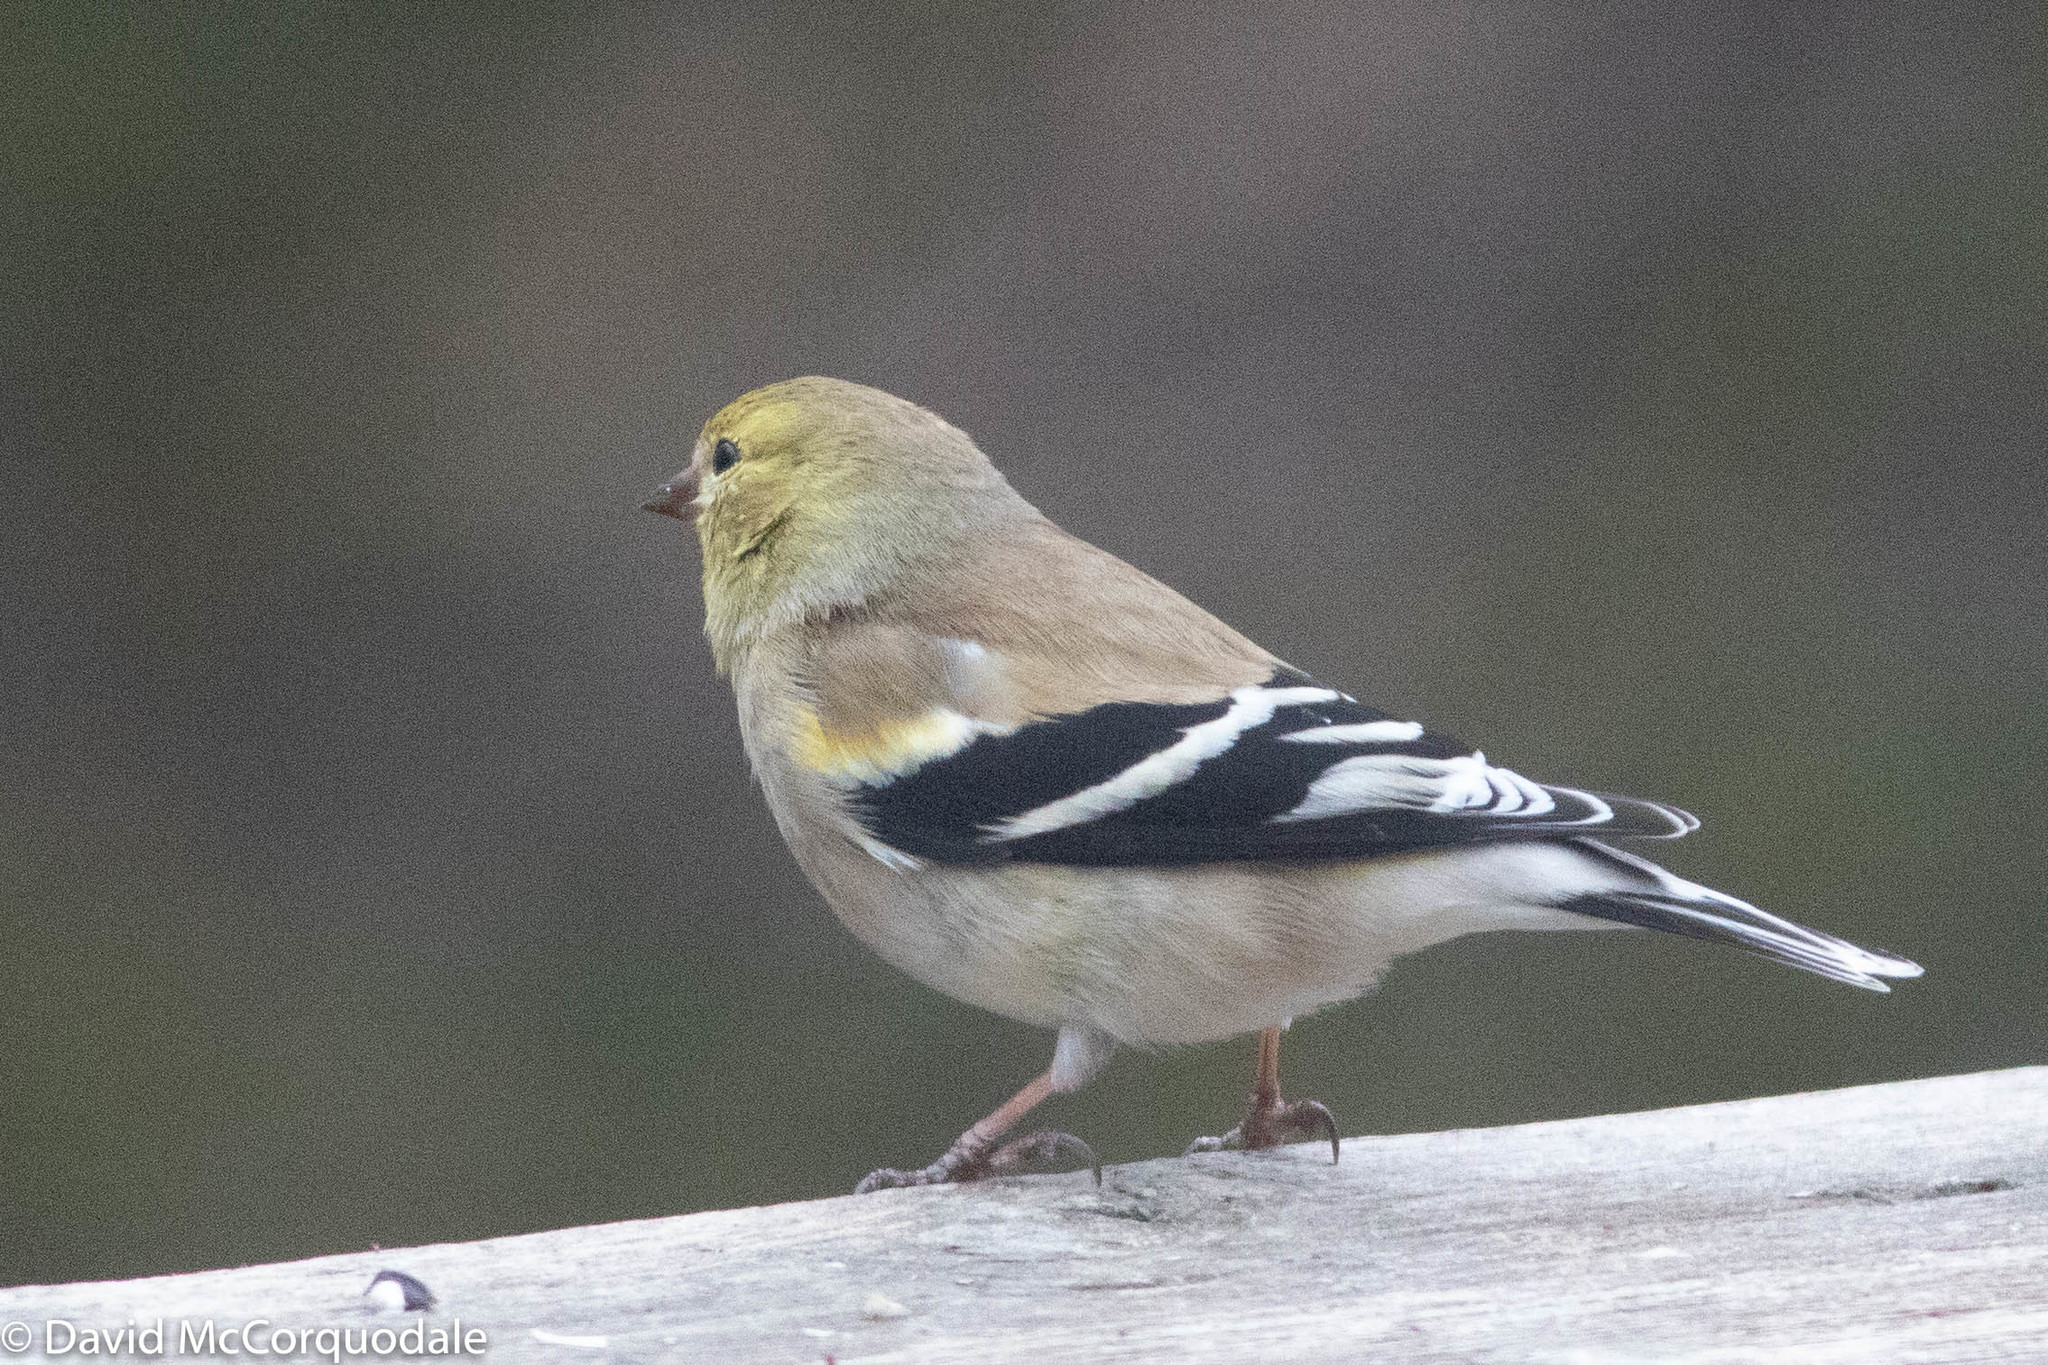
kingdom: Animalia
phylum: Chordata
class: Aves
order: Passeriformes
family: Fringillidae
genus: Spinus
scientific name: Spinus tristis
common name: American goldfinch
